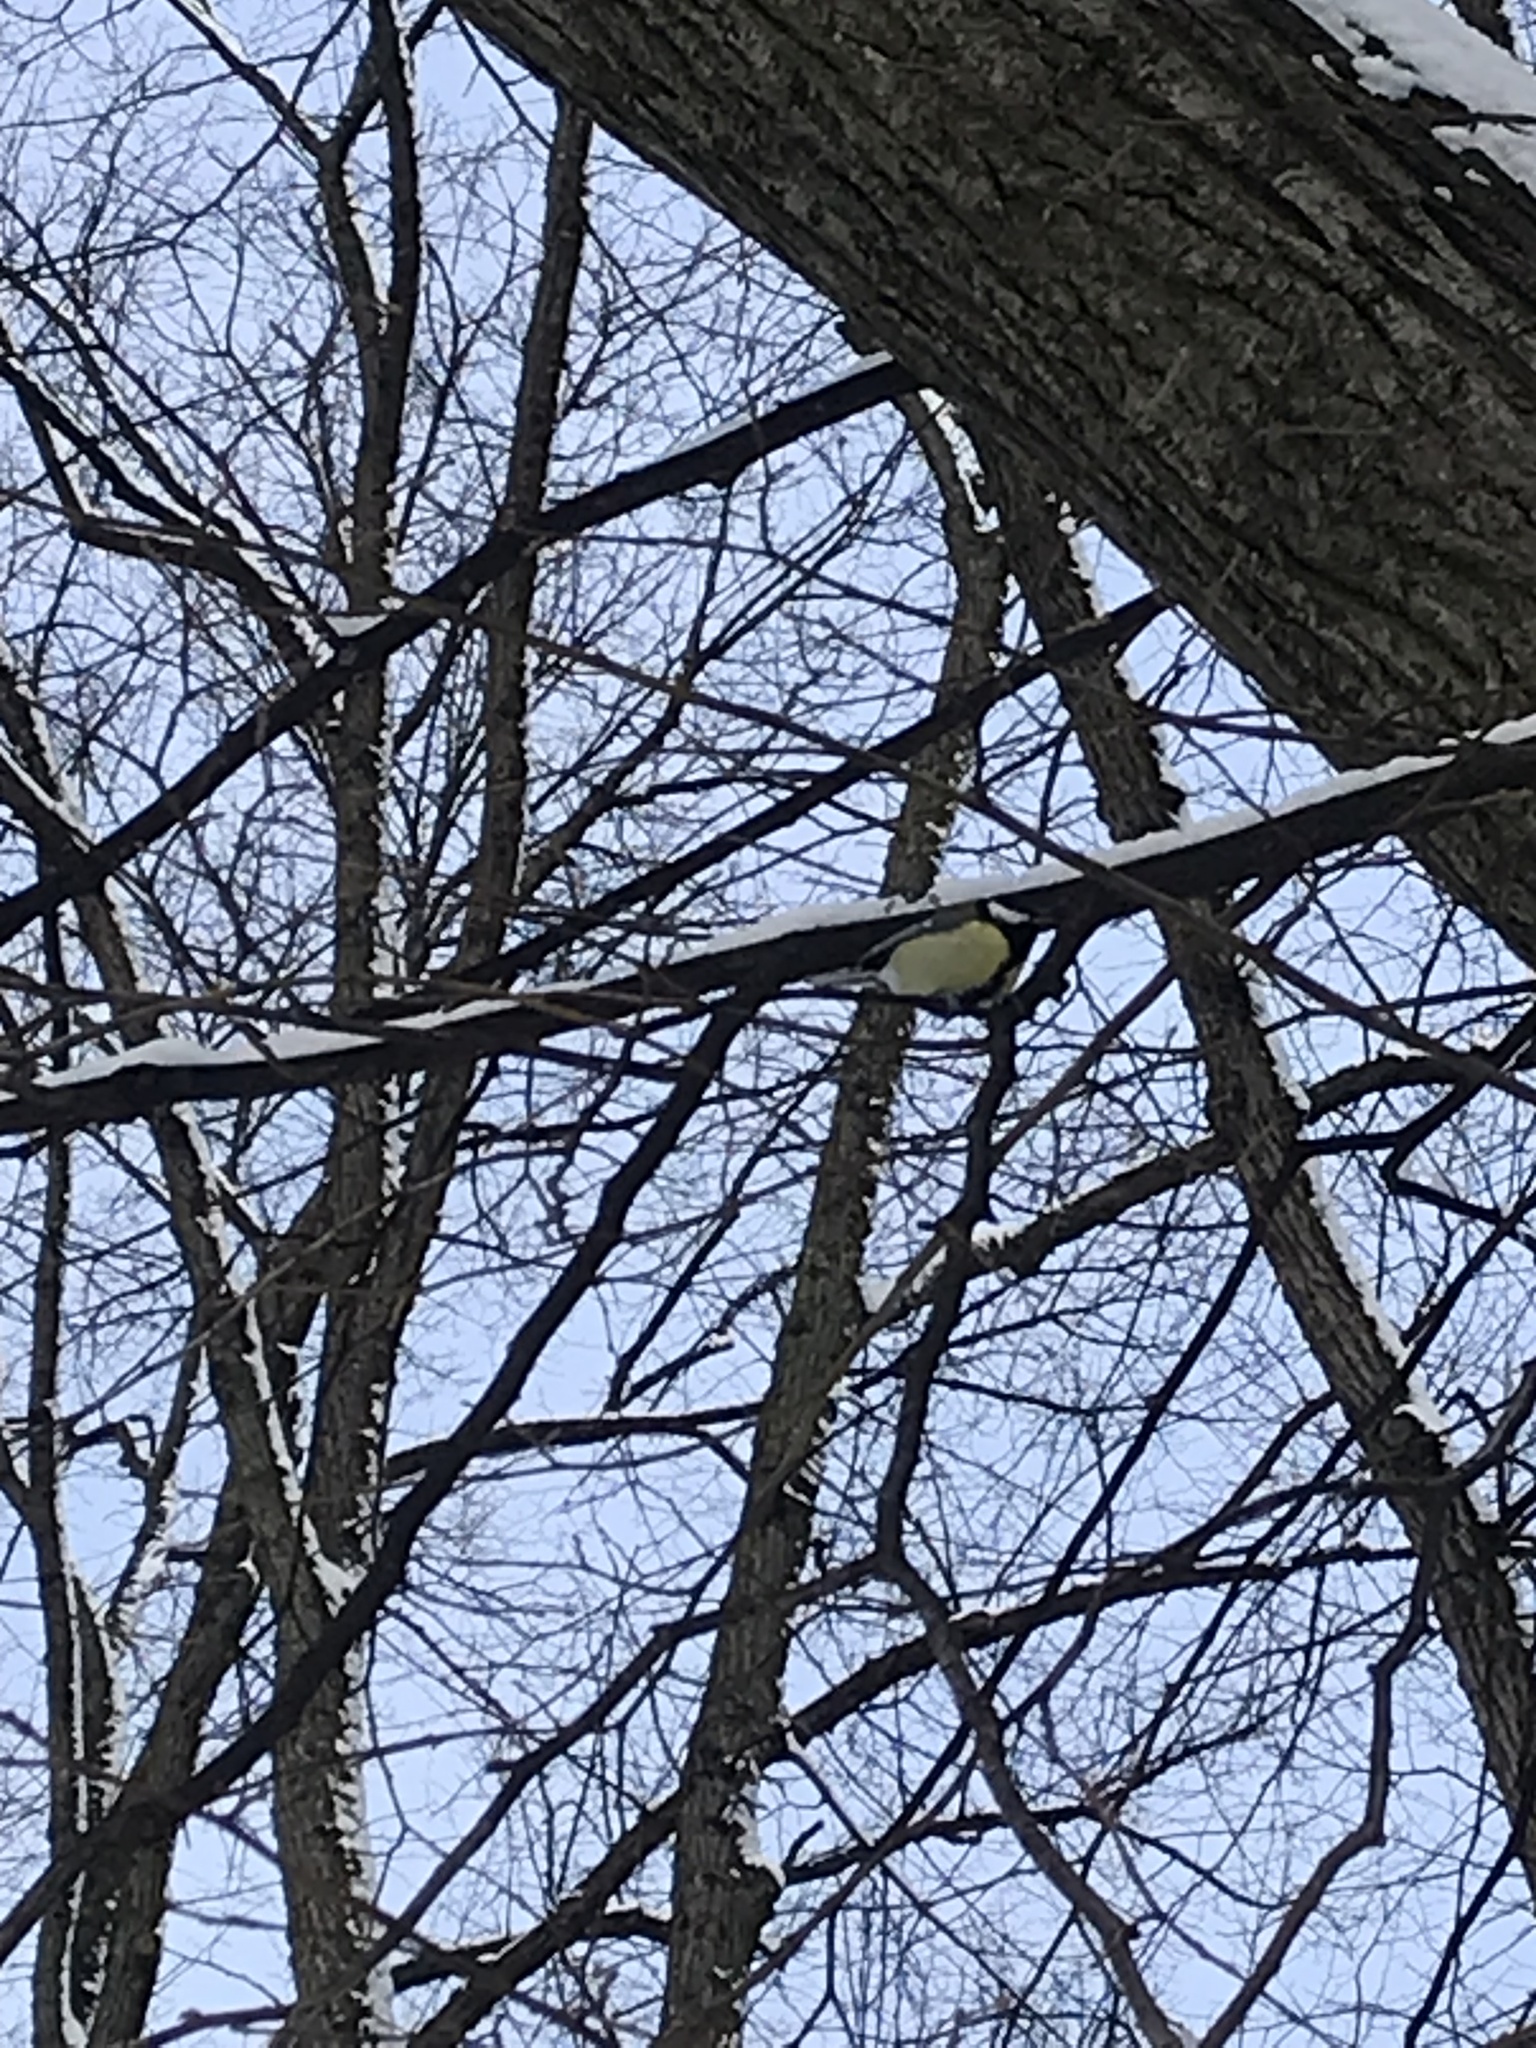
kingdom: Animalia
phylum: Chordata
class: Aves
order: Passeriformes
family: Paridae
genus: Parus
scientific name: Parus major
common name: Great tit
